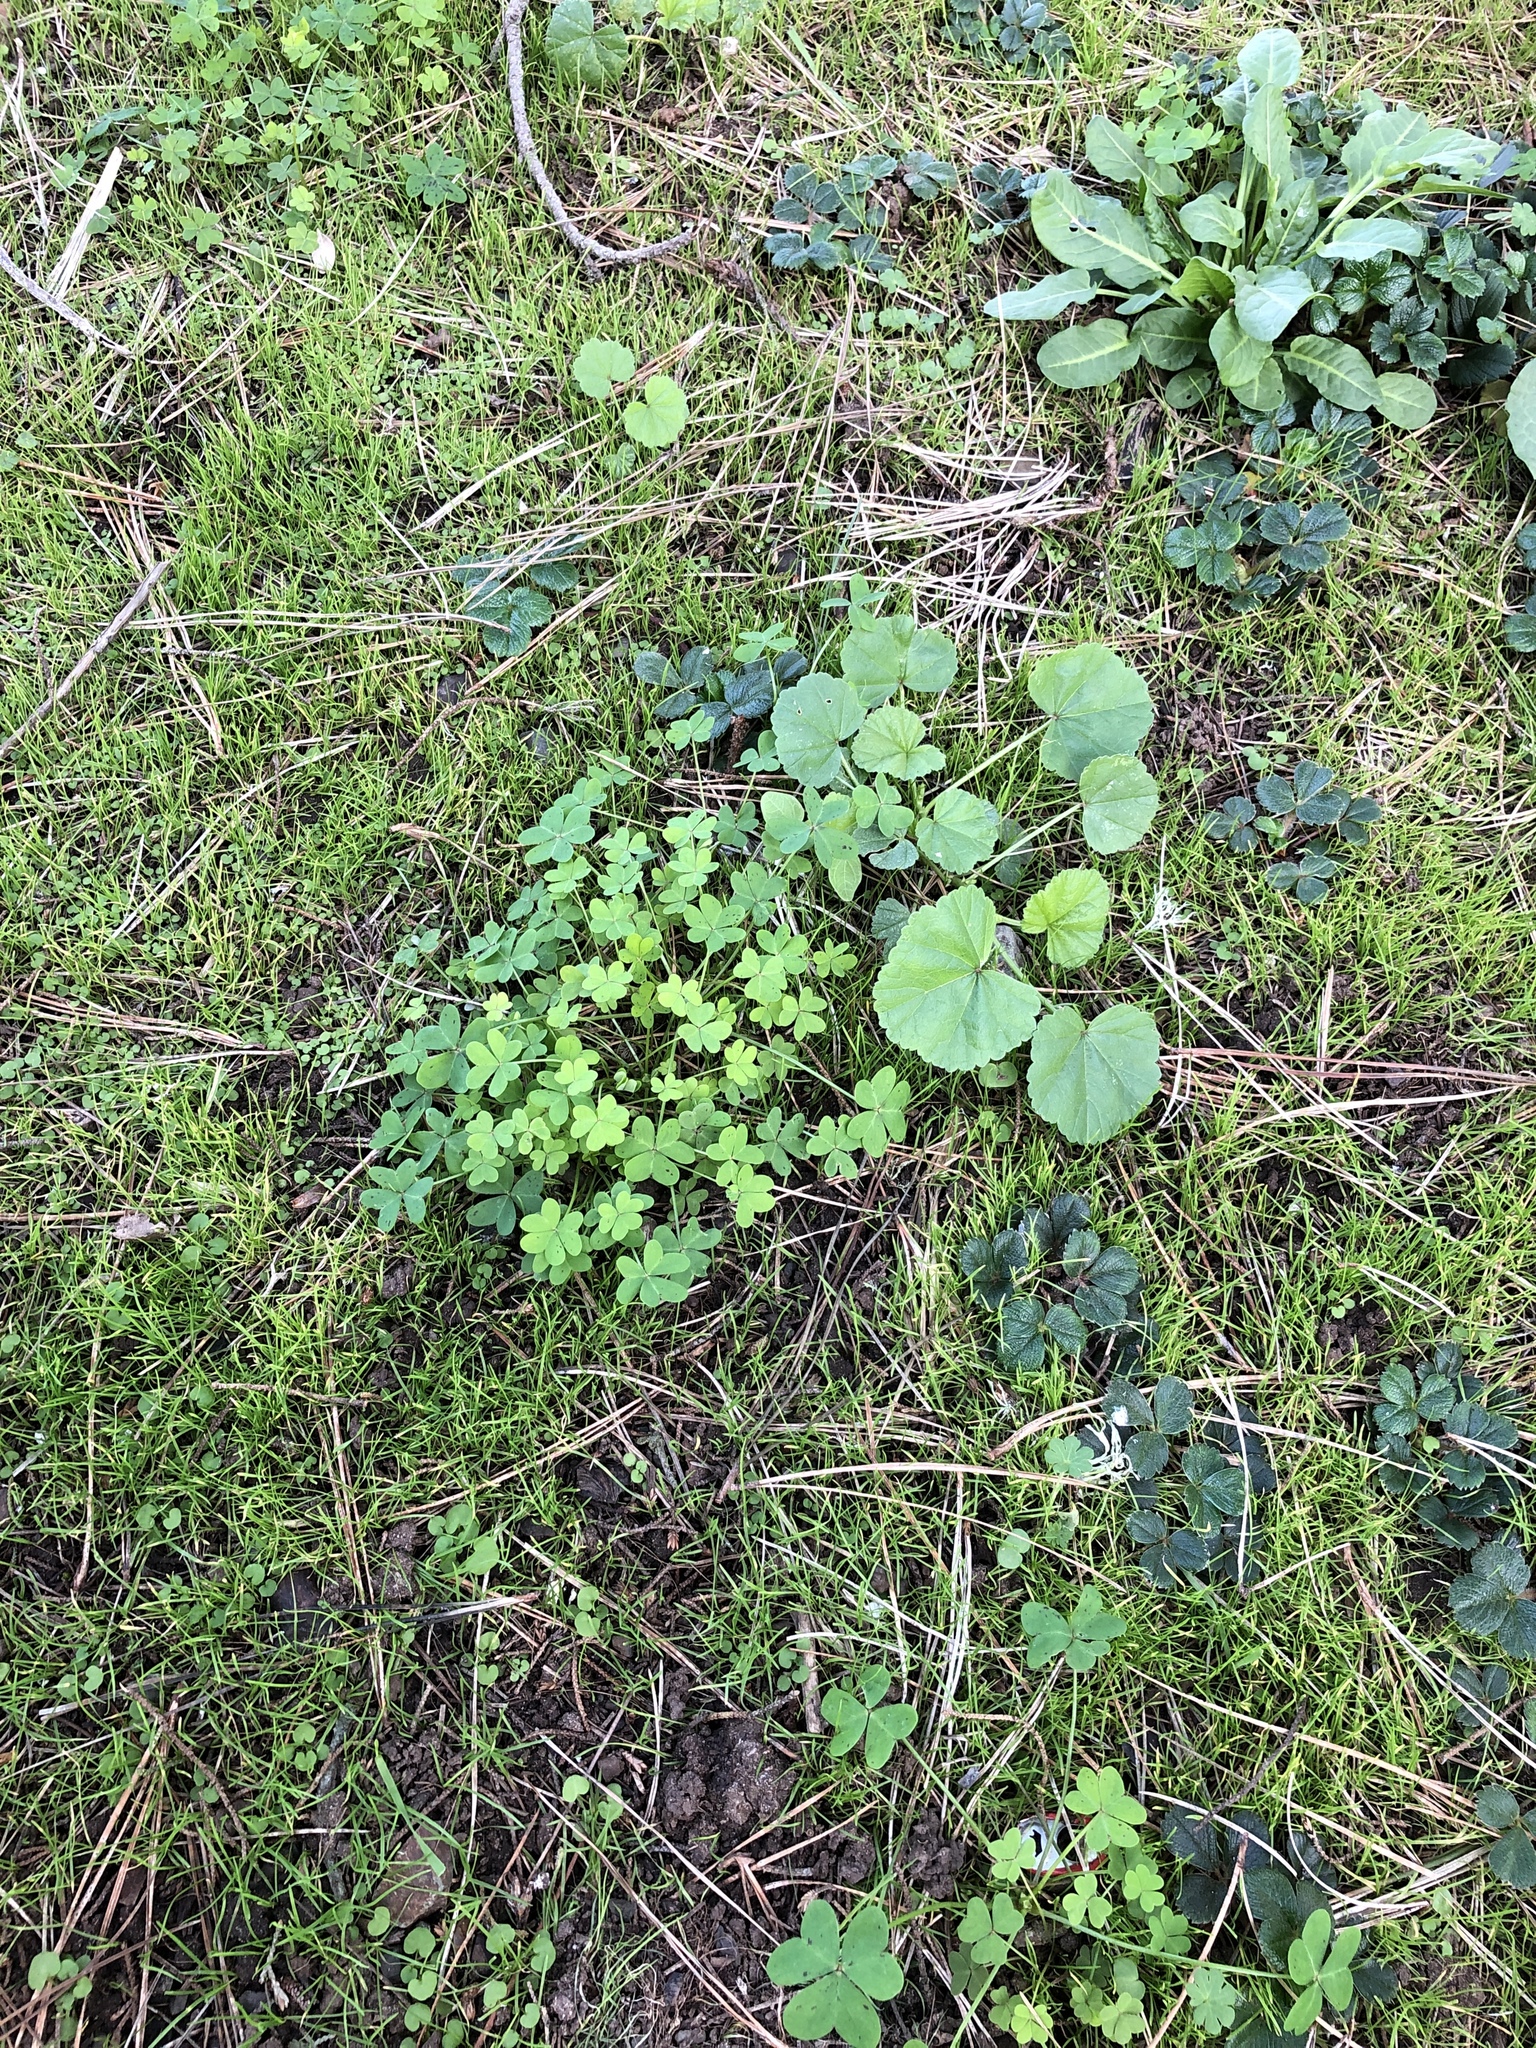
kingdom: Plantae
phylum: Tracheophyta
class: Magnoliopsida
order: Oxalidales
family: Oxalidaceae
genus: Oxalis
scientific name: Oxalis pes-caprae
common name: Bermuda-buttercup
